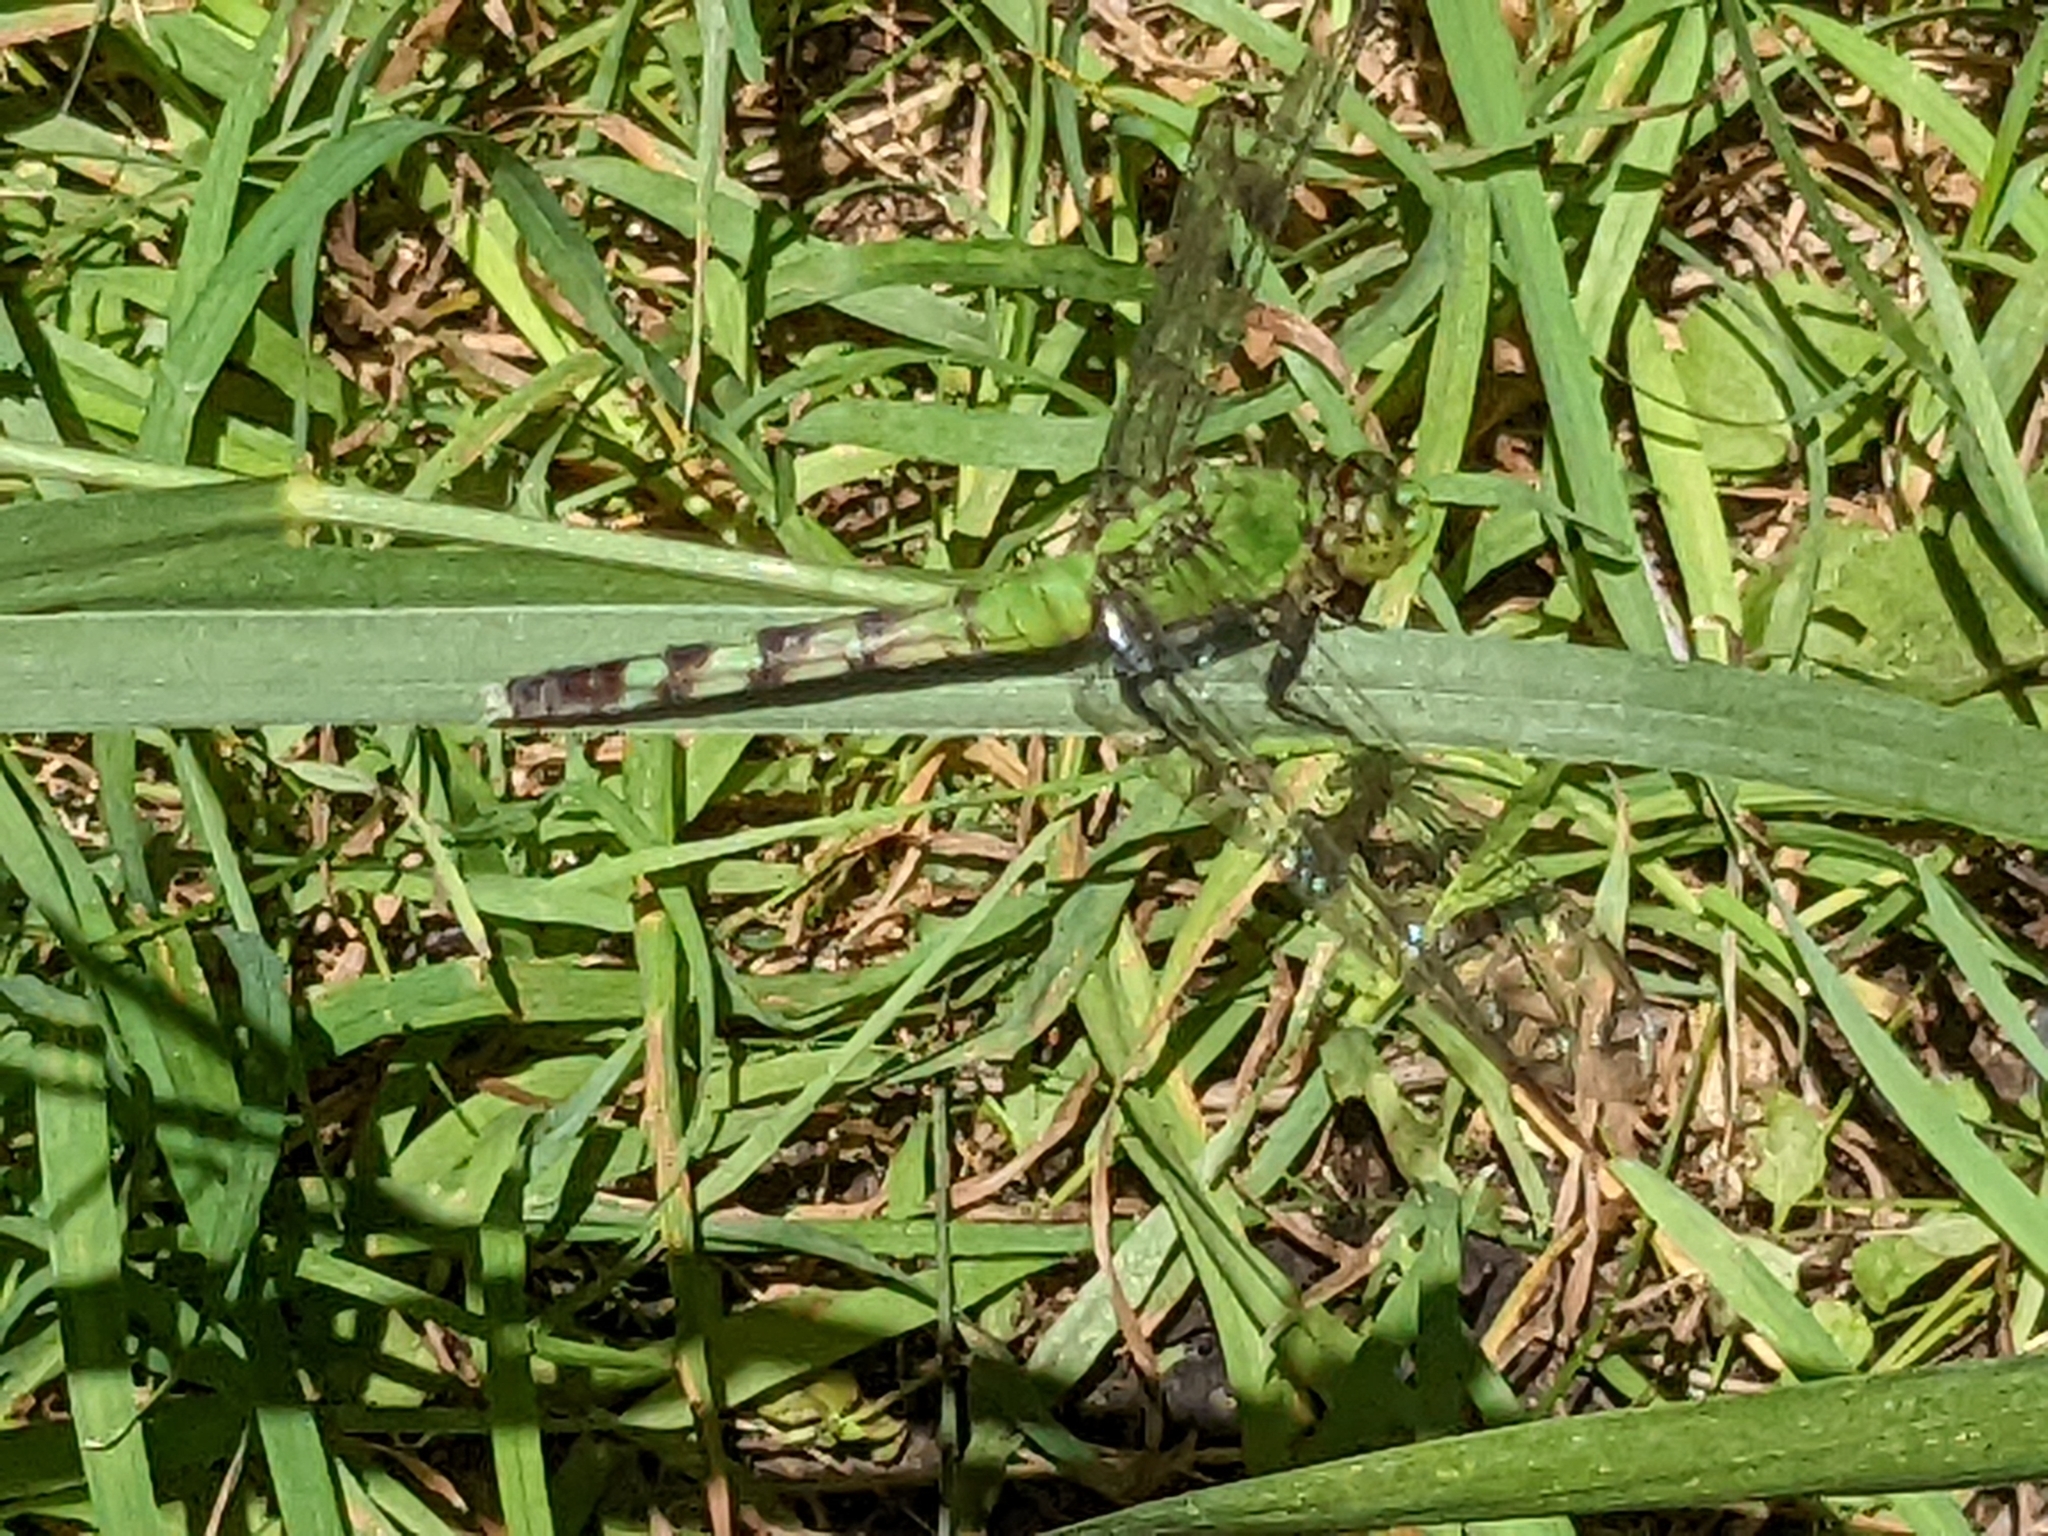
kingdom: Animalia
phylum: Arthropoda
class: Insecta
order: Odonata
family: Libellulidae
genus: Erythemis
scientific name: Erythemis simplicicollis
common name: Eastern pondhawk
